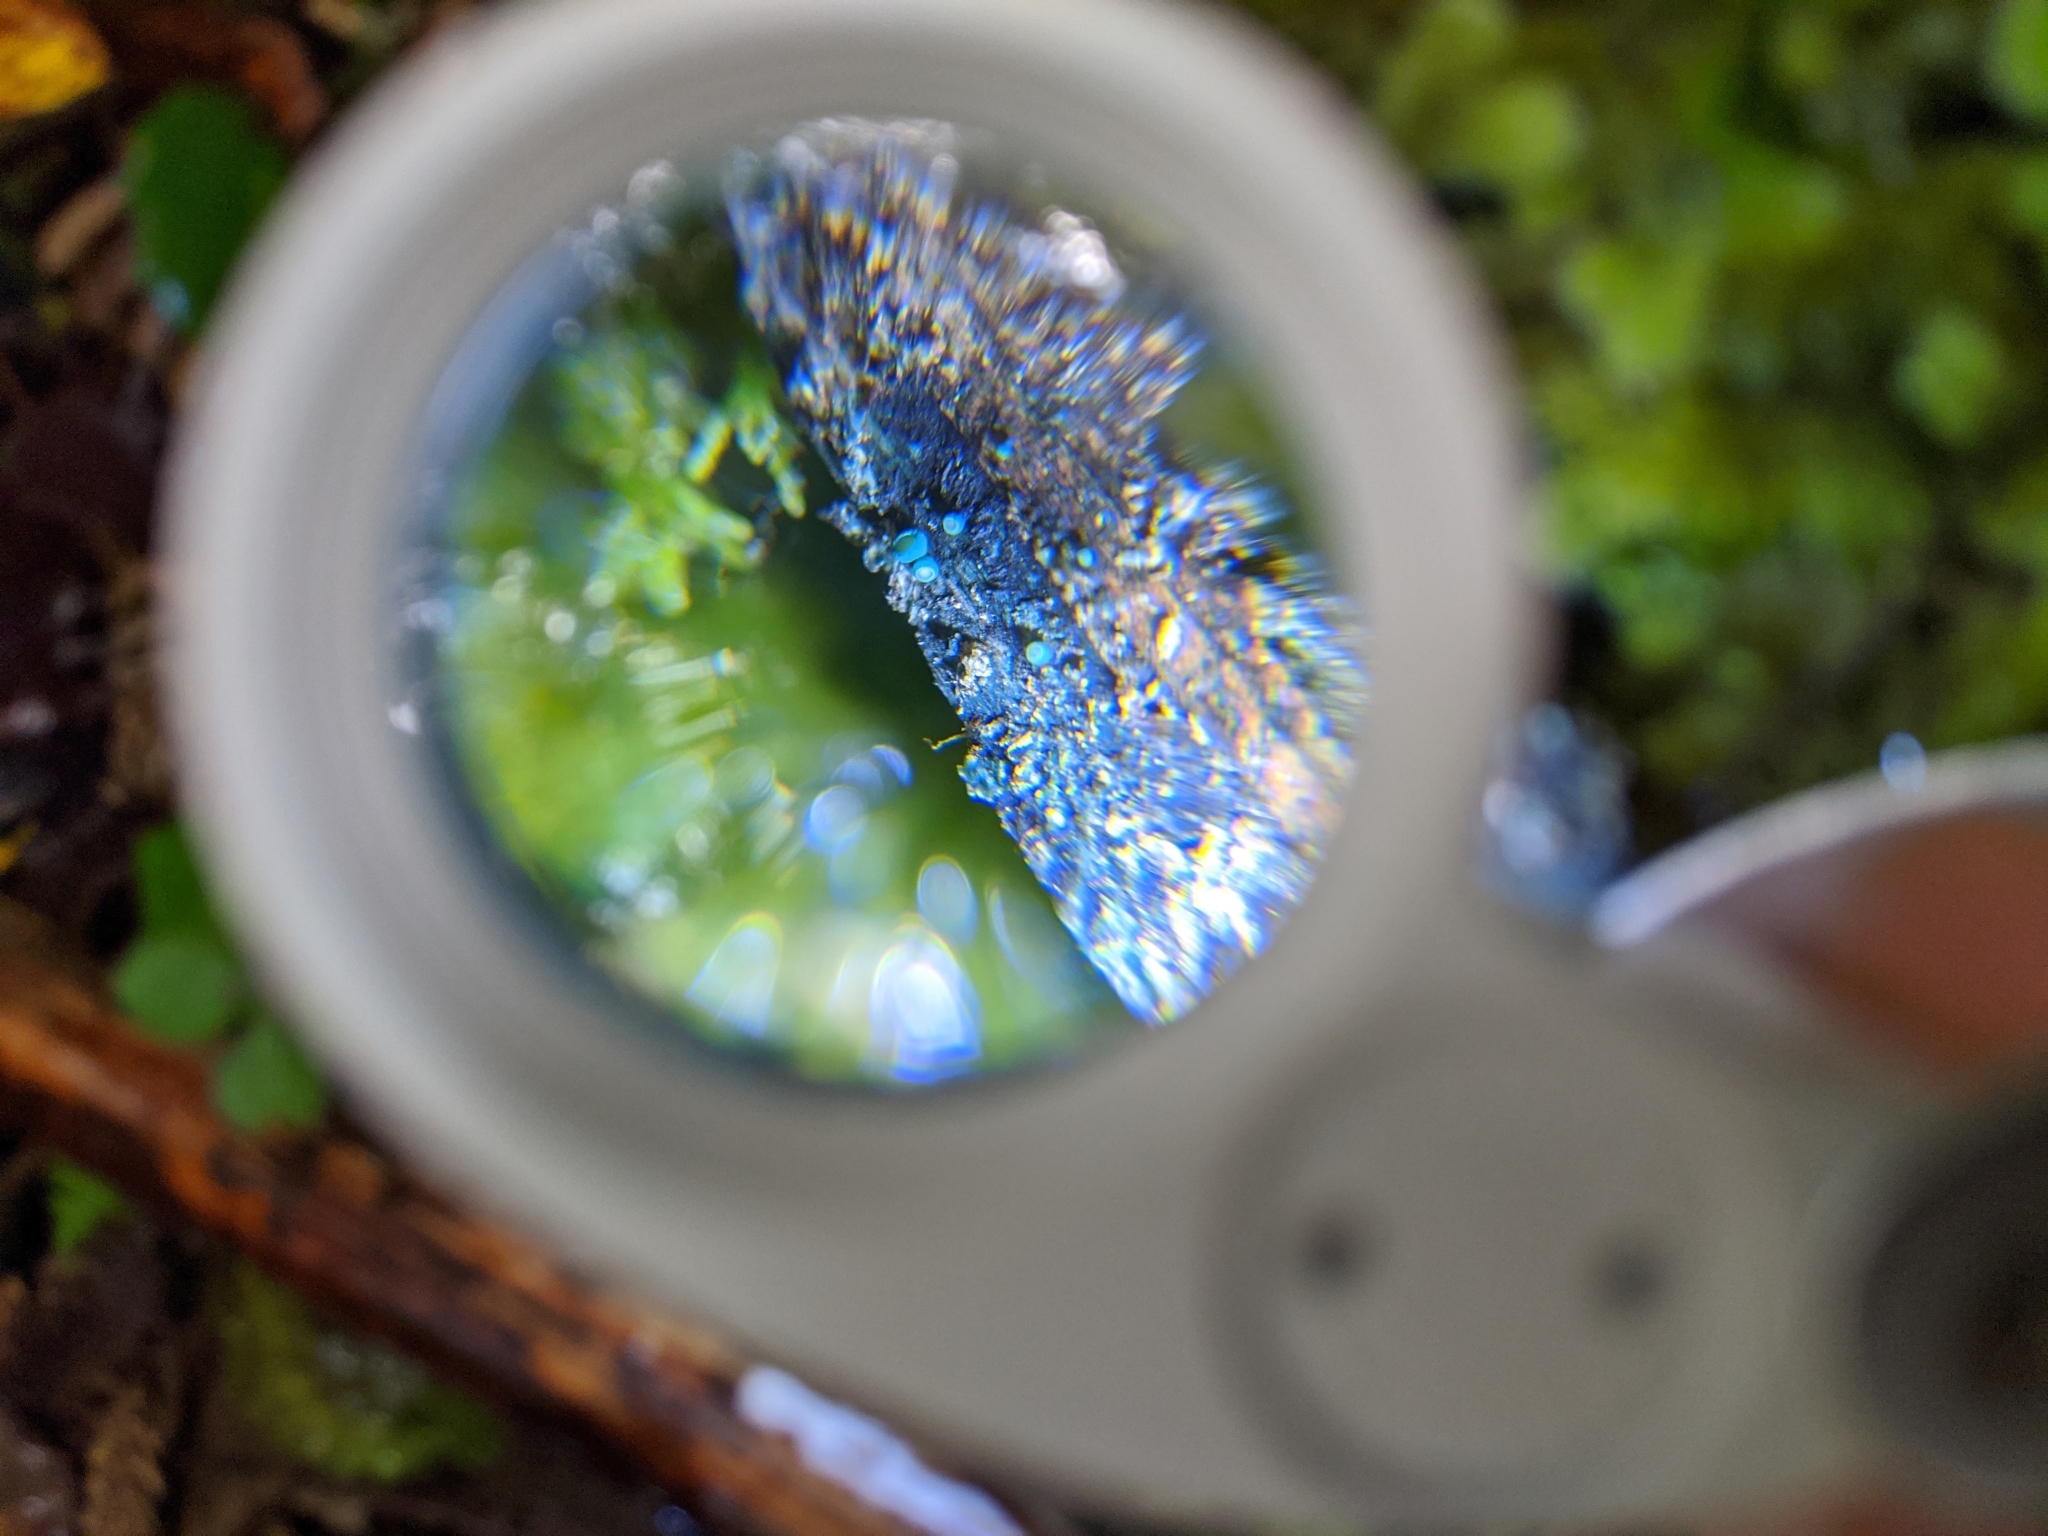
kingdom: Fungi
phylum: Ascomycota
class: Leotiomycetes
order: Helotiales
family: Chlorociboriaceae
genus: Chlorociboria
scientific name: Chlorociboria
